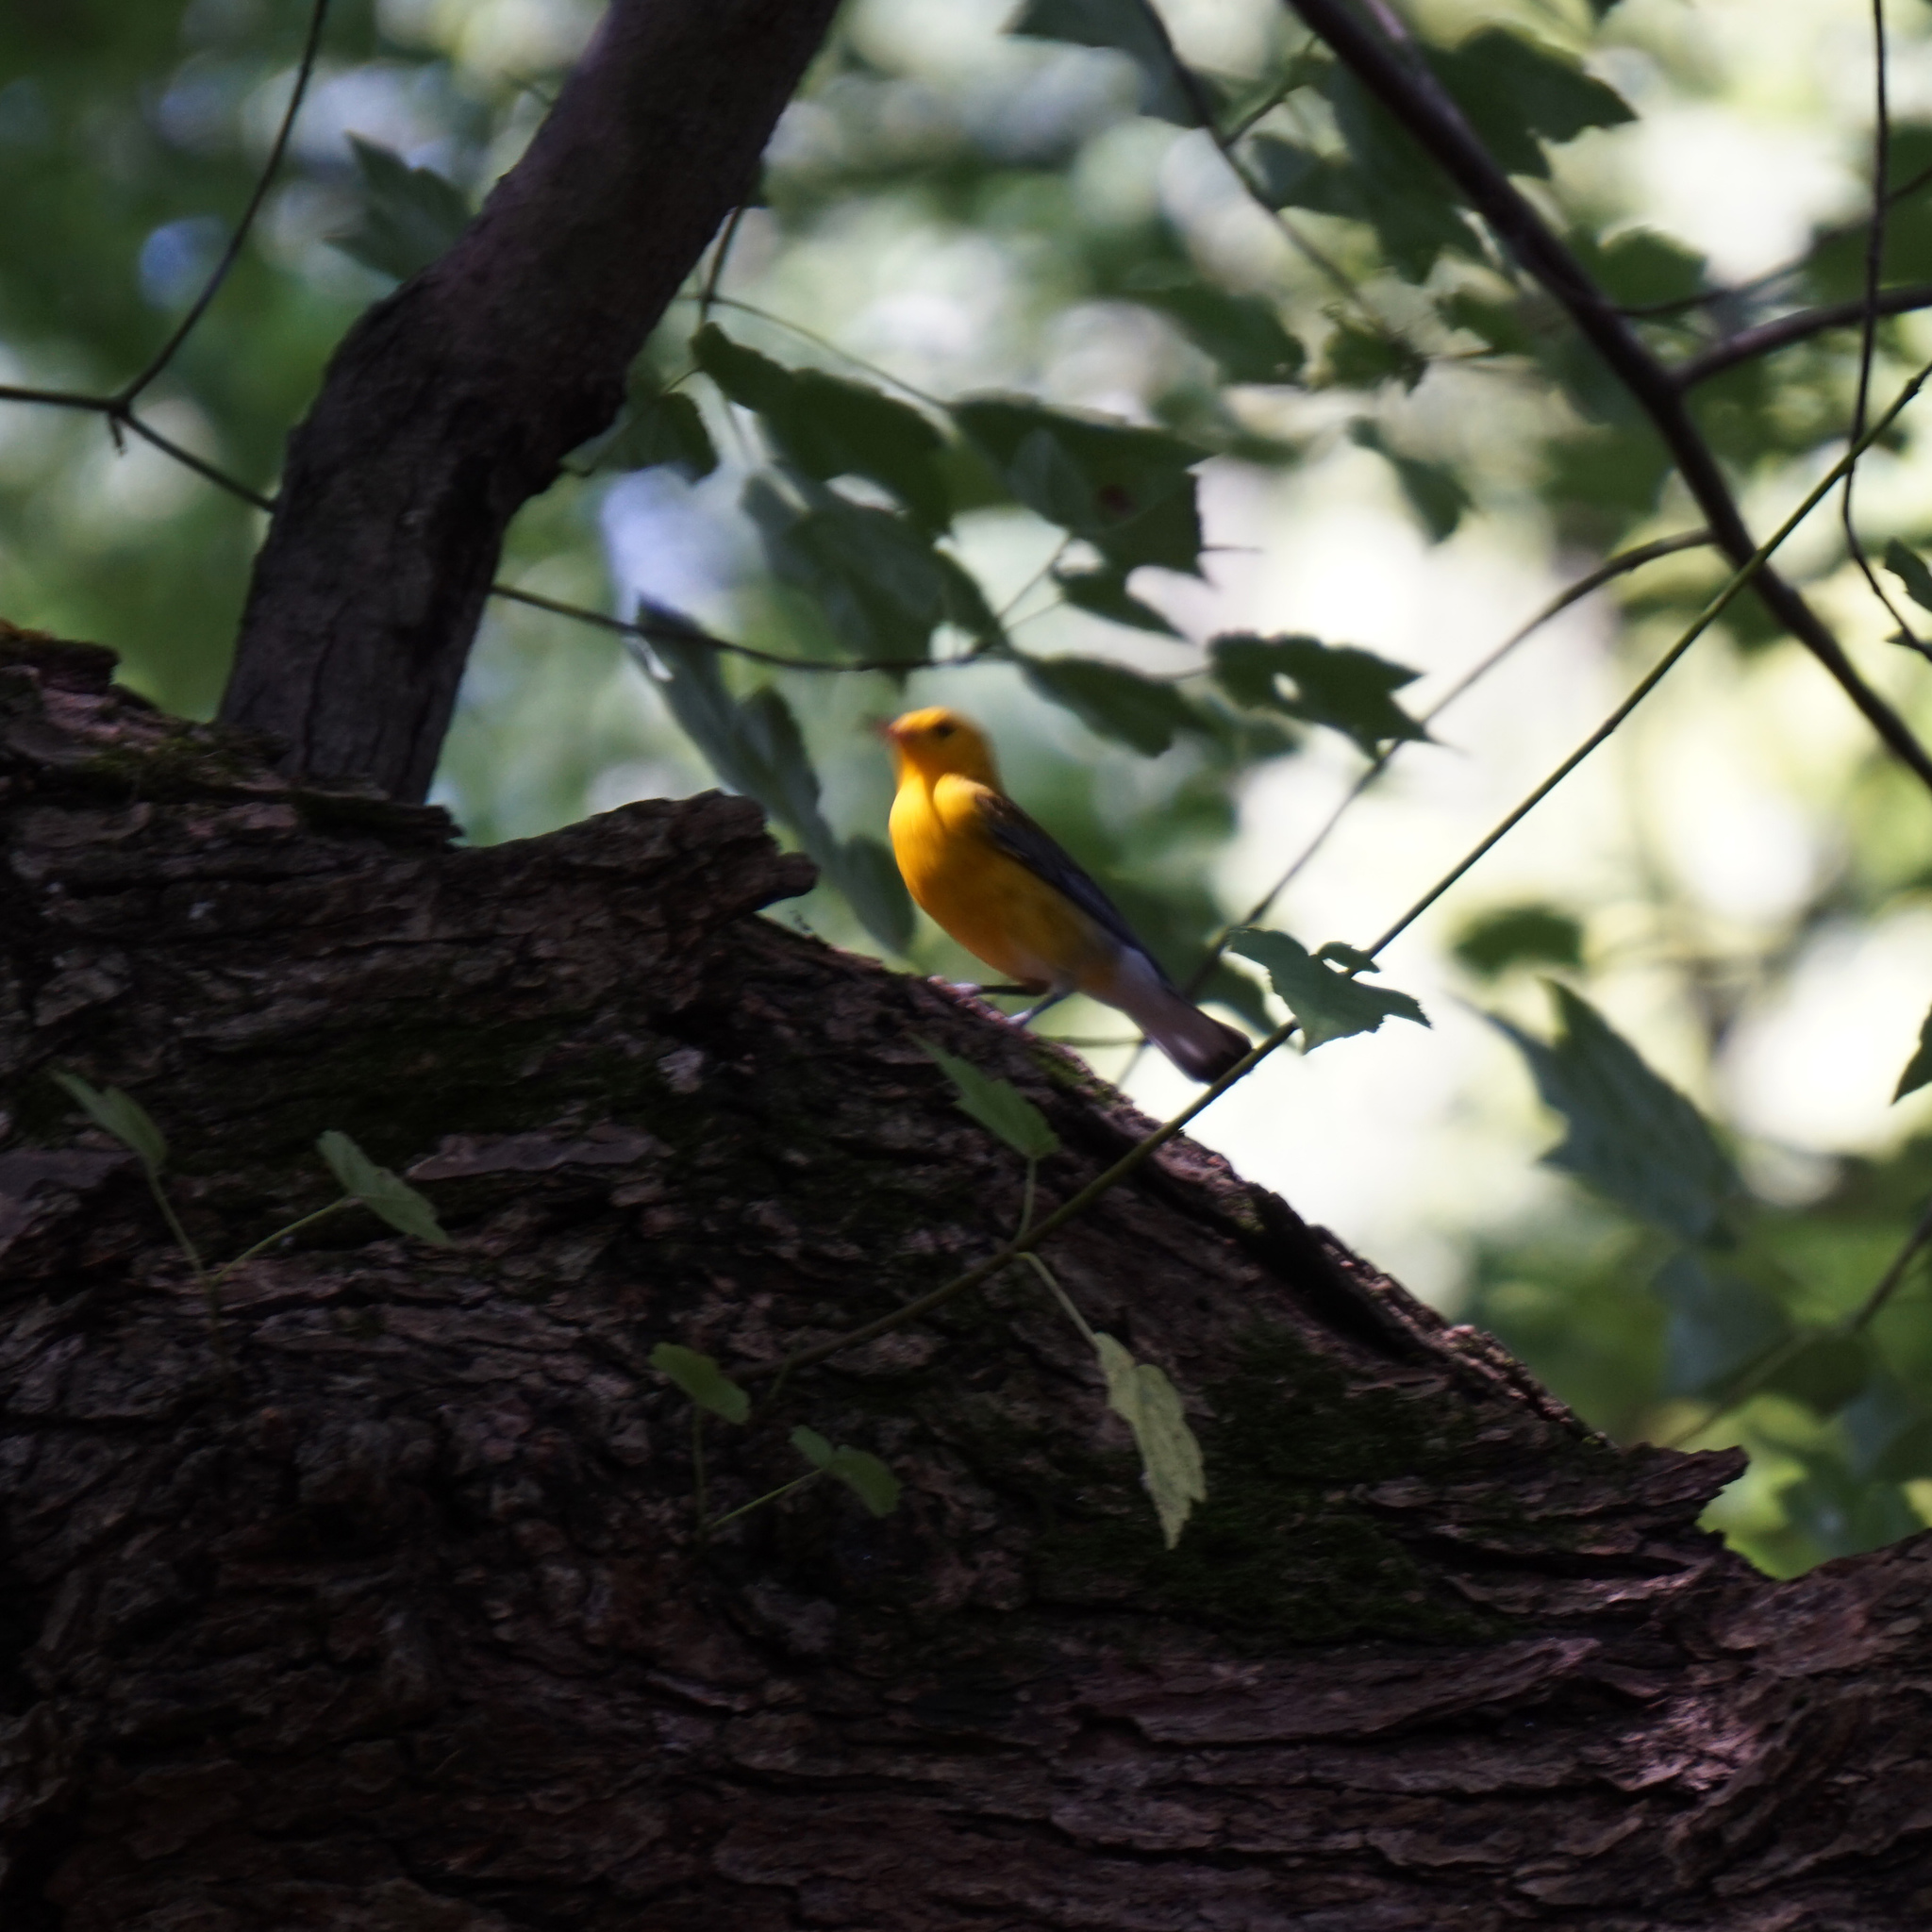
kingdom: Animalia
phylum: Chordata
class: Aves
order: Passeriformes
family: Parulidae
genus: Protonotaria
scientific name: Protonotaria citrea
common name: Prothonotary warbler
